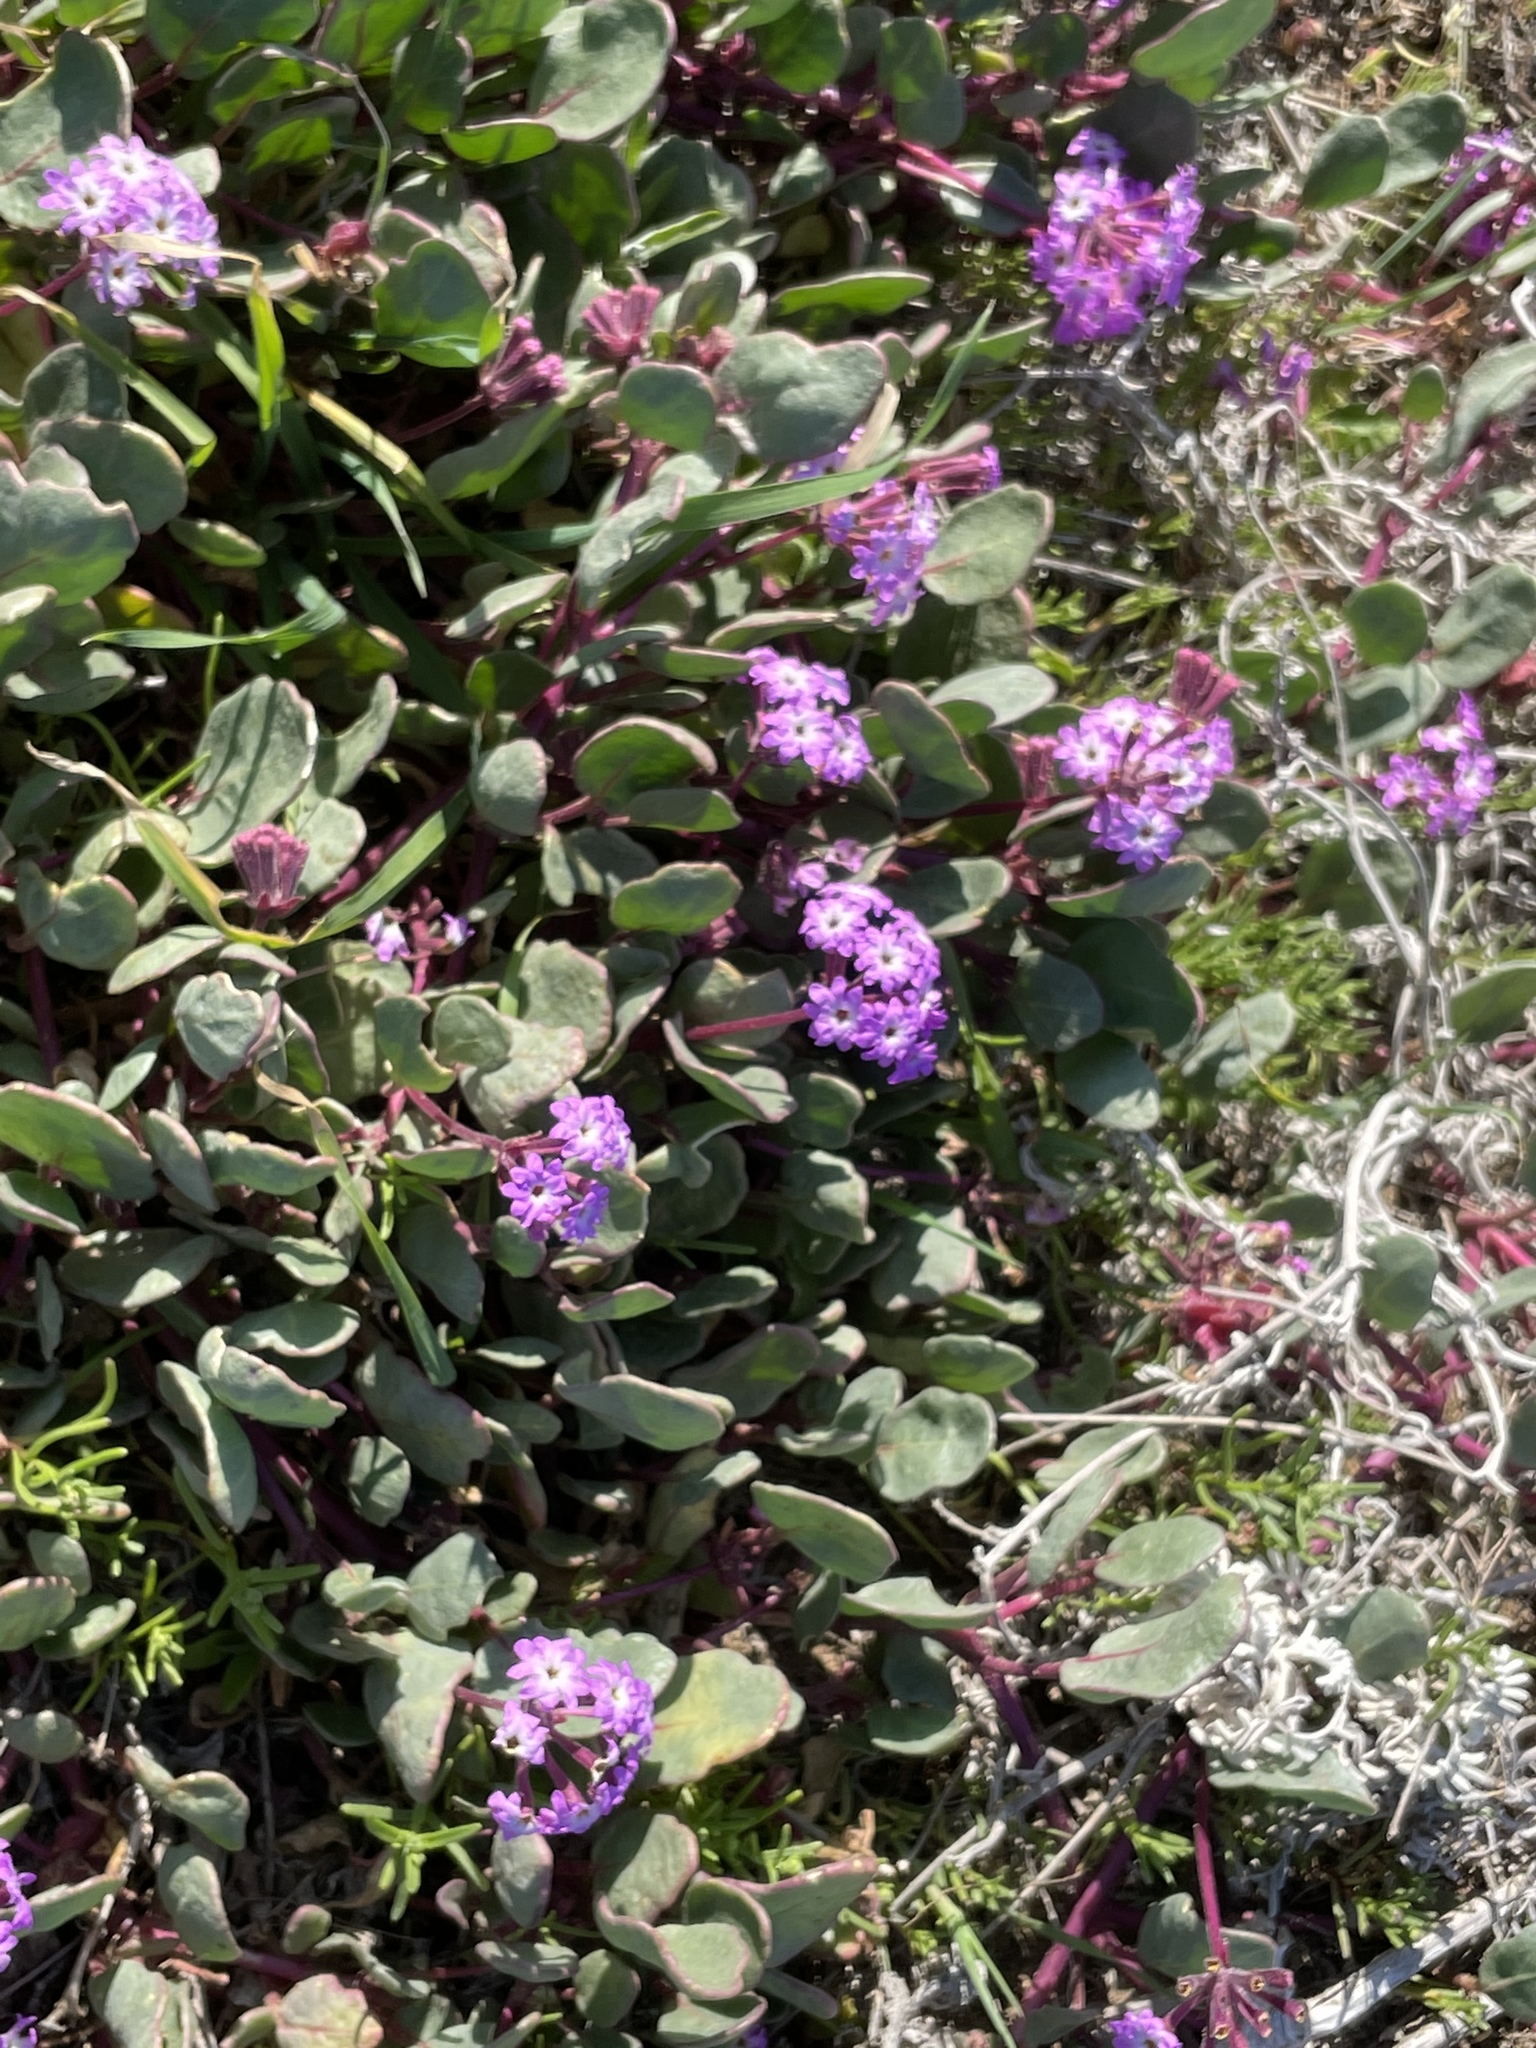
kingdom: Plantae
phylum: Tracheophyta
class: Magnoliopsida
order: Caryophyllales
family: Nyctaginaceae
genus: Abronia
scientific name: Abronia umbellata
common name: Sand-verbena
